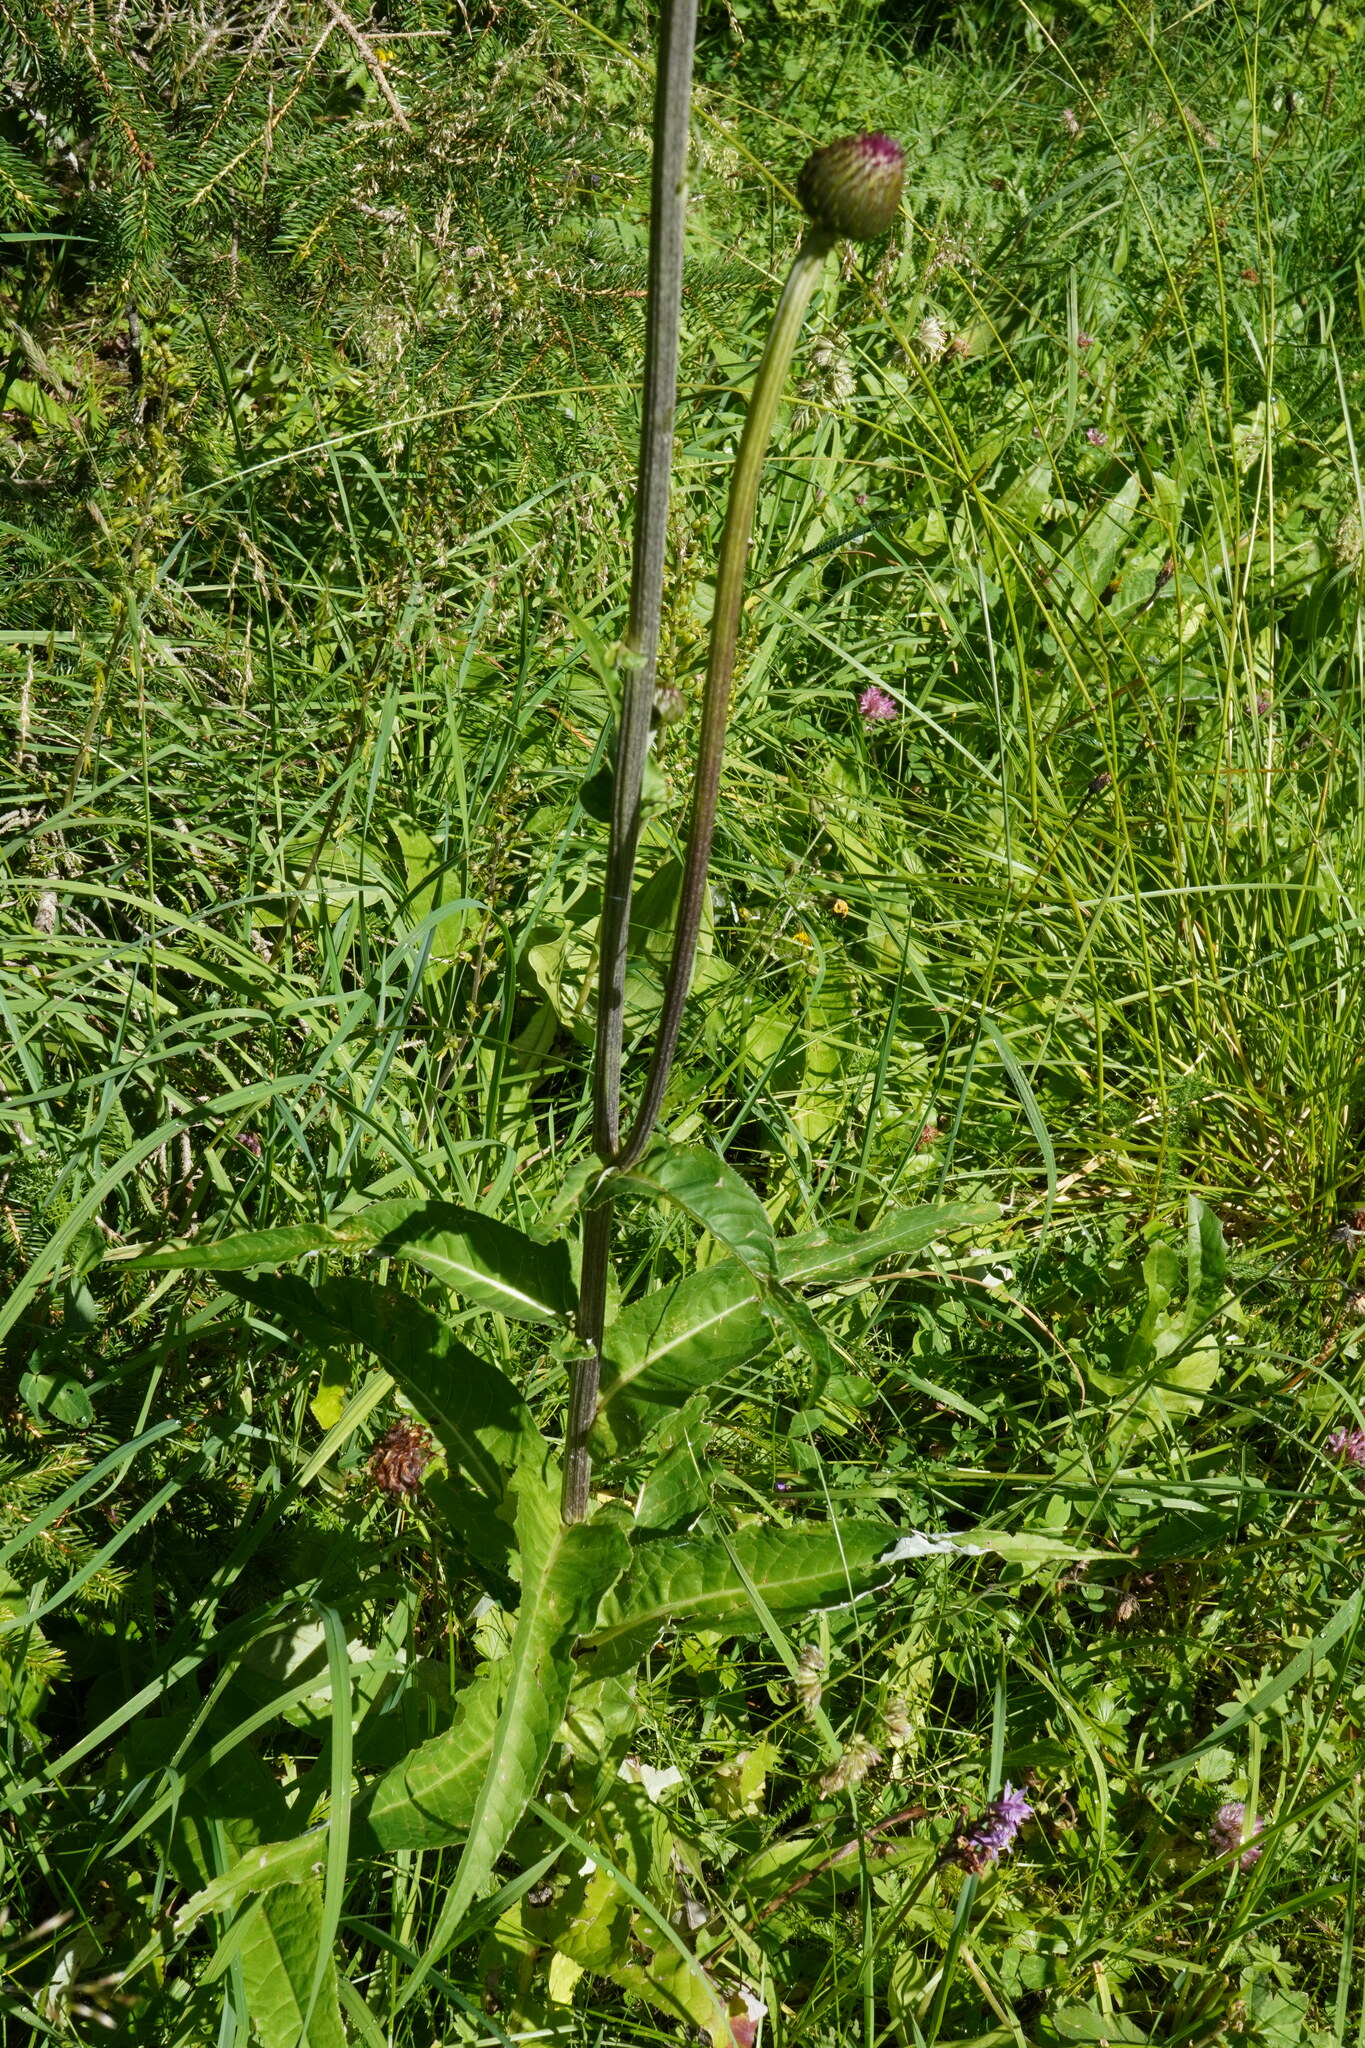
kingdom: Plantae
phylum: Tracheophyta
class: Magnoliopsida
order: Asterales
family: Asteraceae
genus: Cirsium
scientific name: Cirsium heterophyllum
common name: Melancholy thistle
